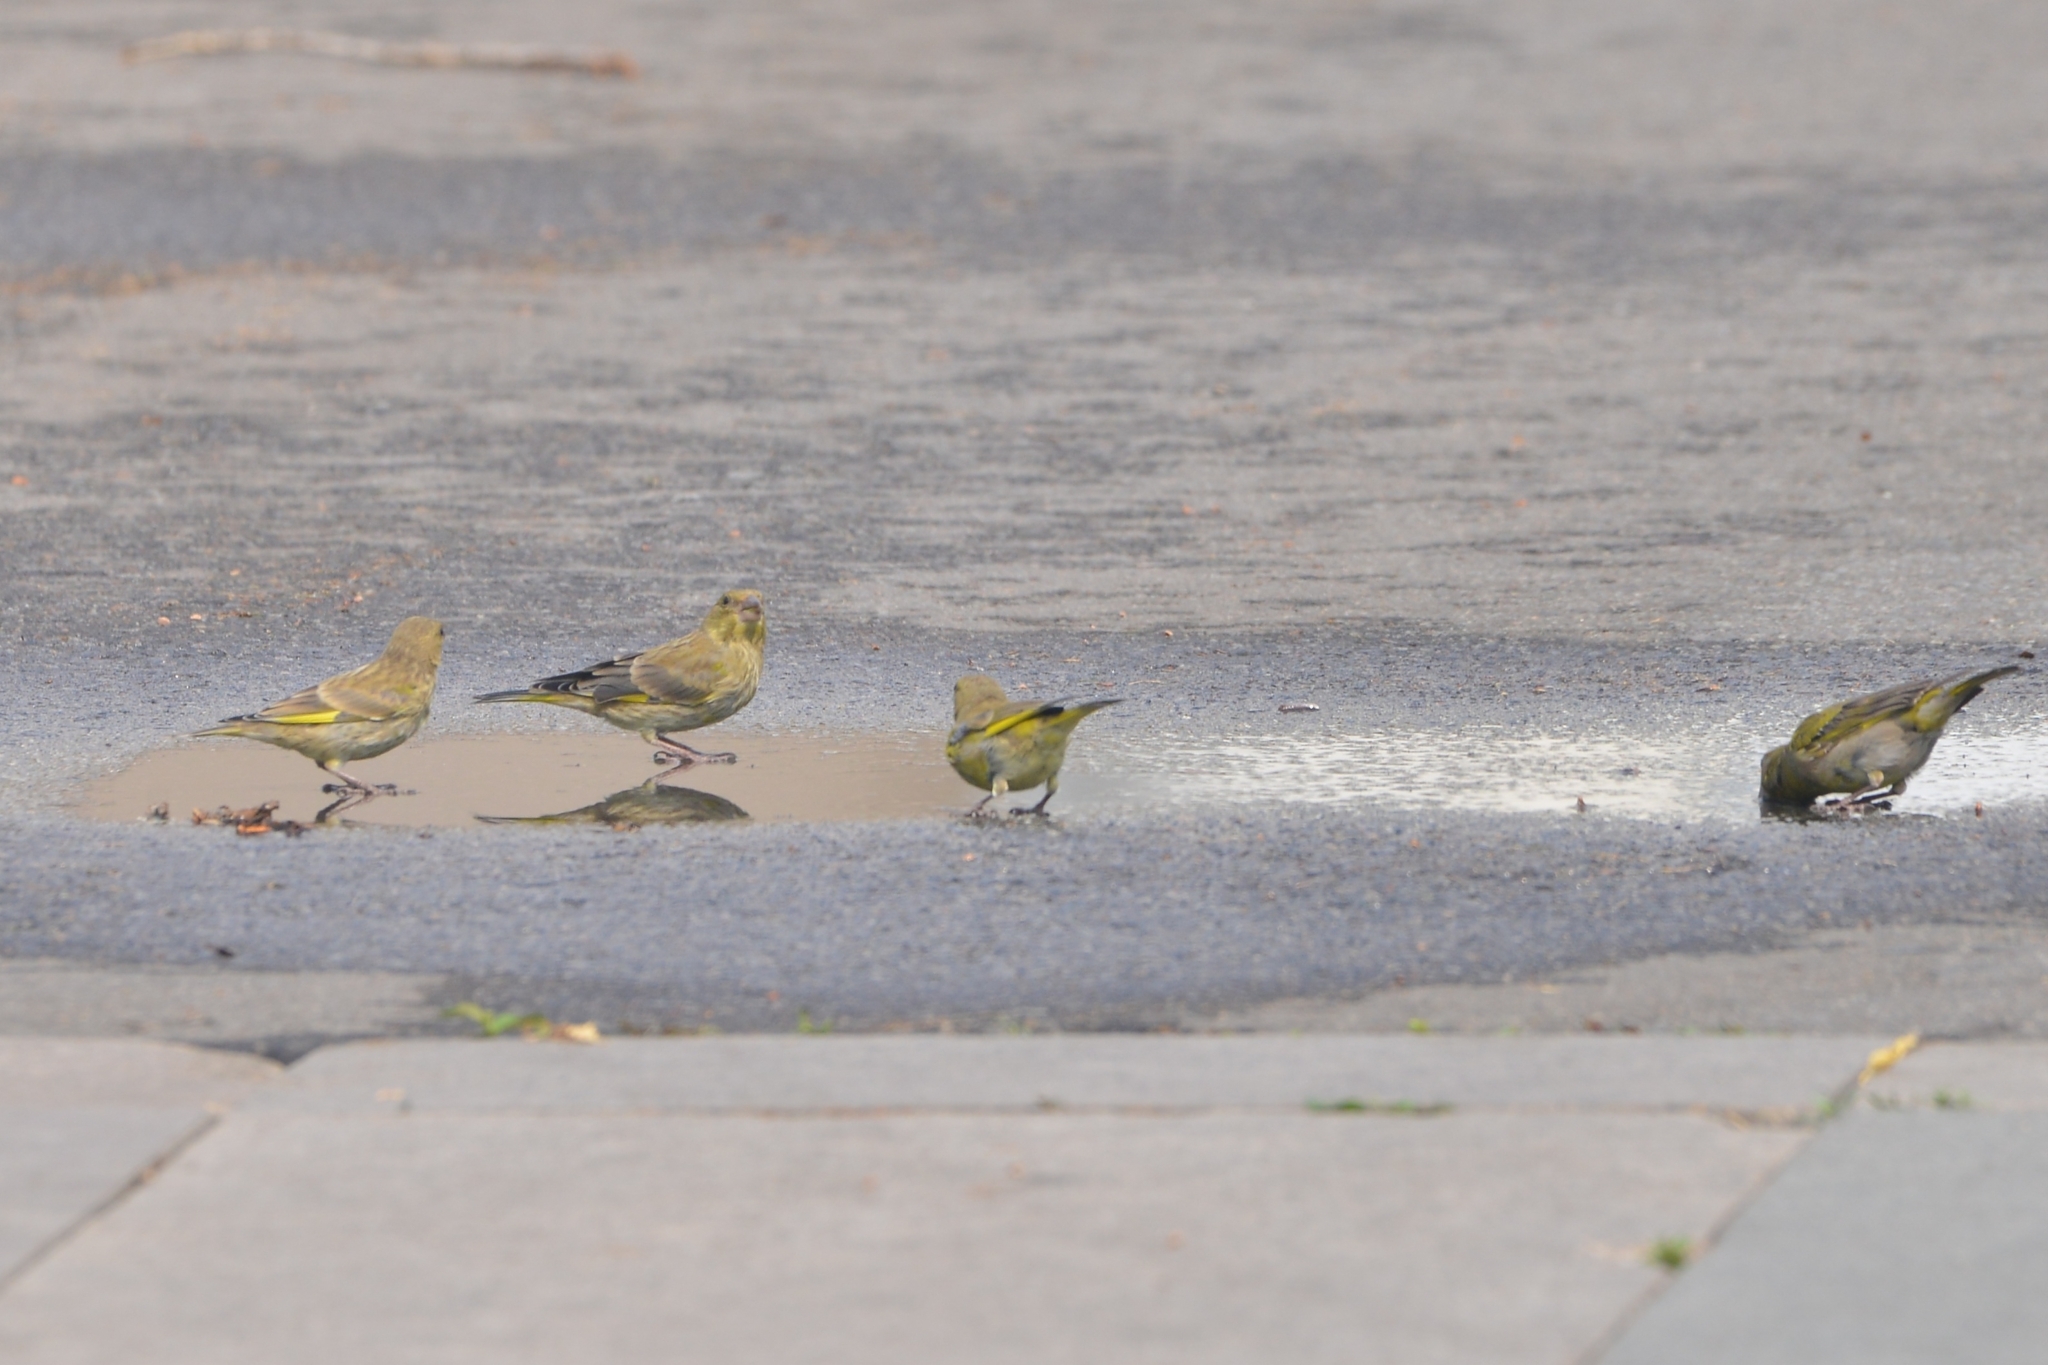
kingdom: Plantae
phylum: Tracheophyta
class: Liliopsida
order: Poales
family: Poaceae
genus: Chloris
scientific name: Chloris chloris
